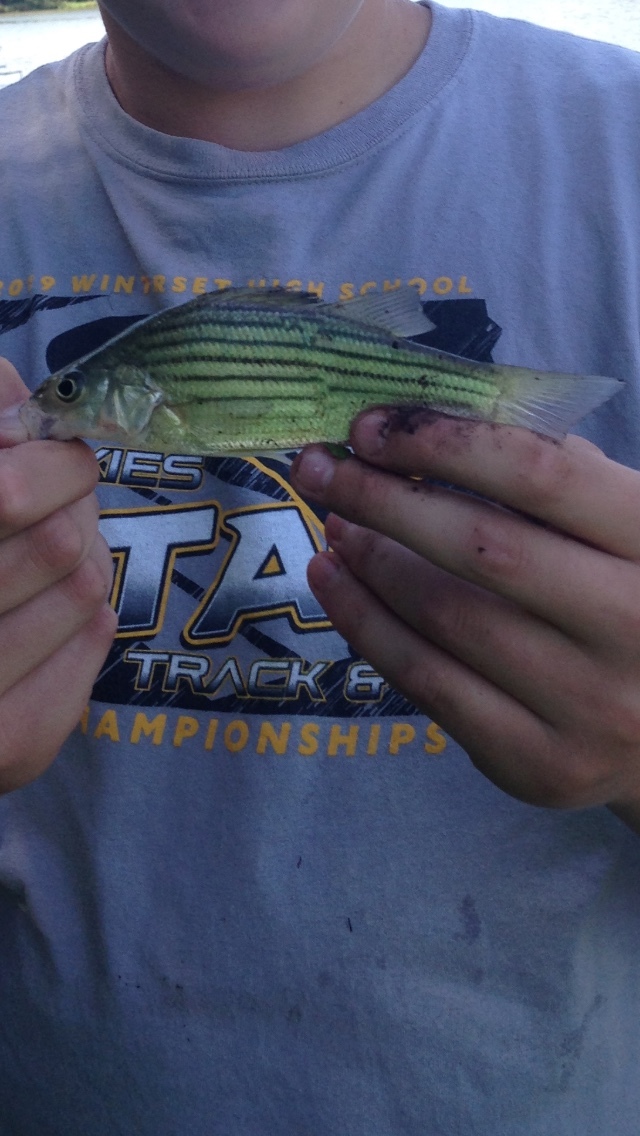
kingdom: Animalia
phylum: Chordata
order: Perciformes
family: Moronidae
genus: Morone
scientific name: Morone mississippiensis
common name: Yellow bass
